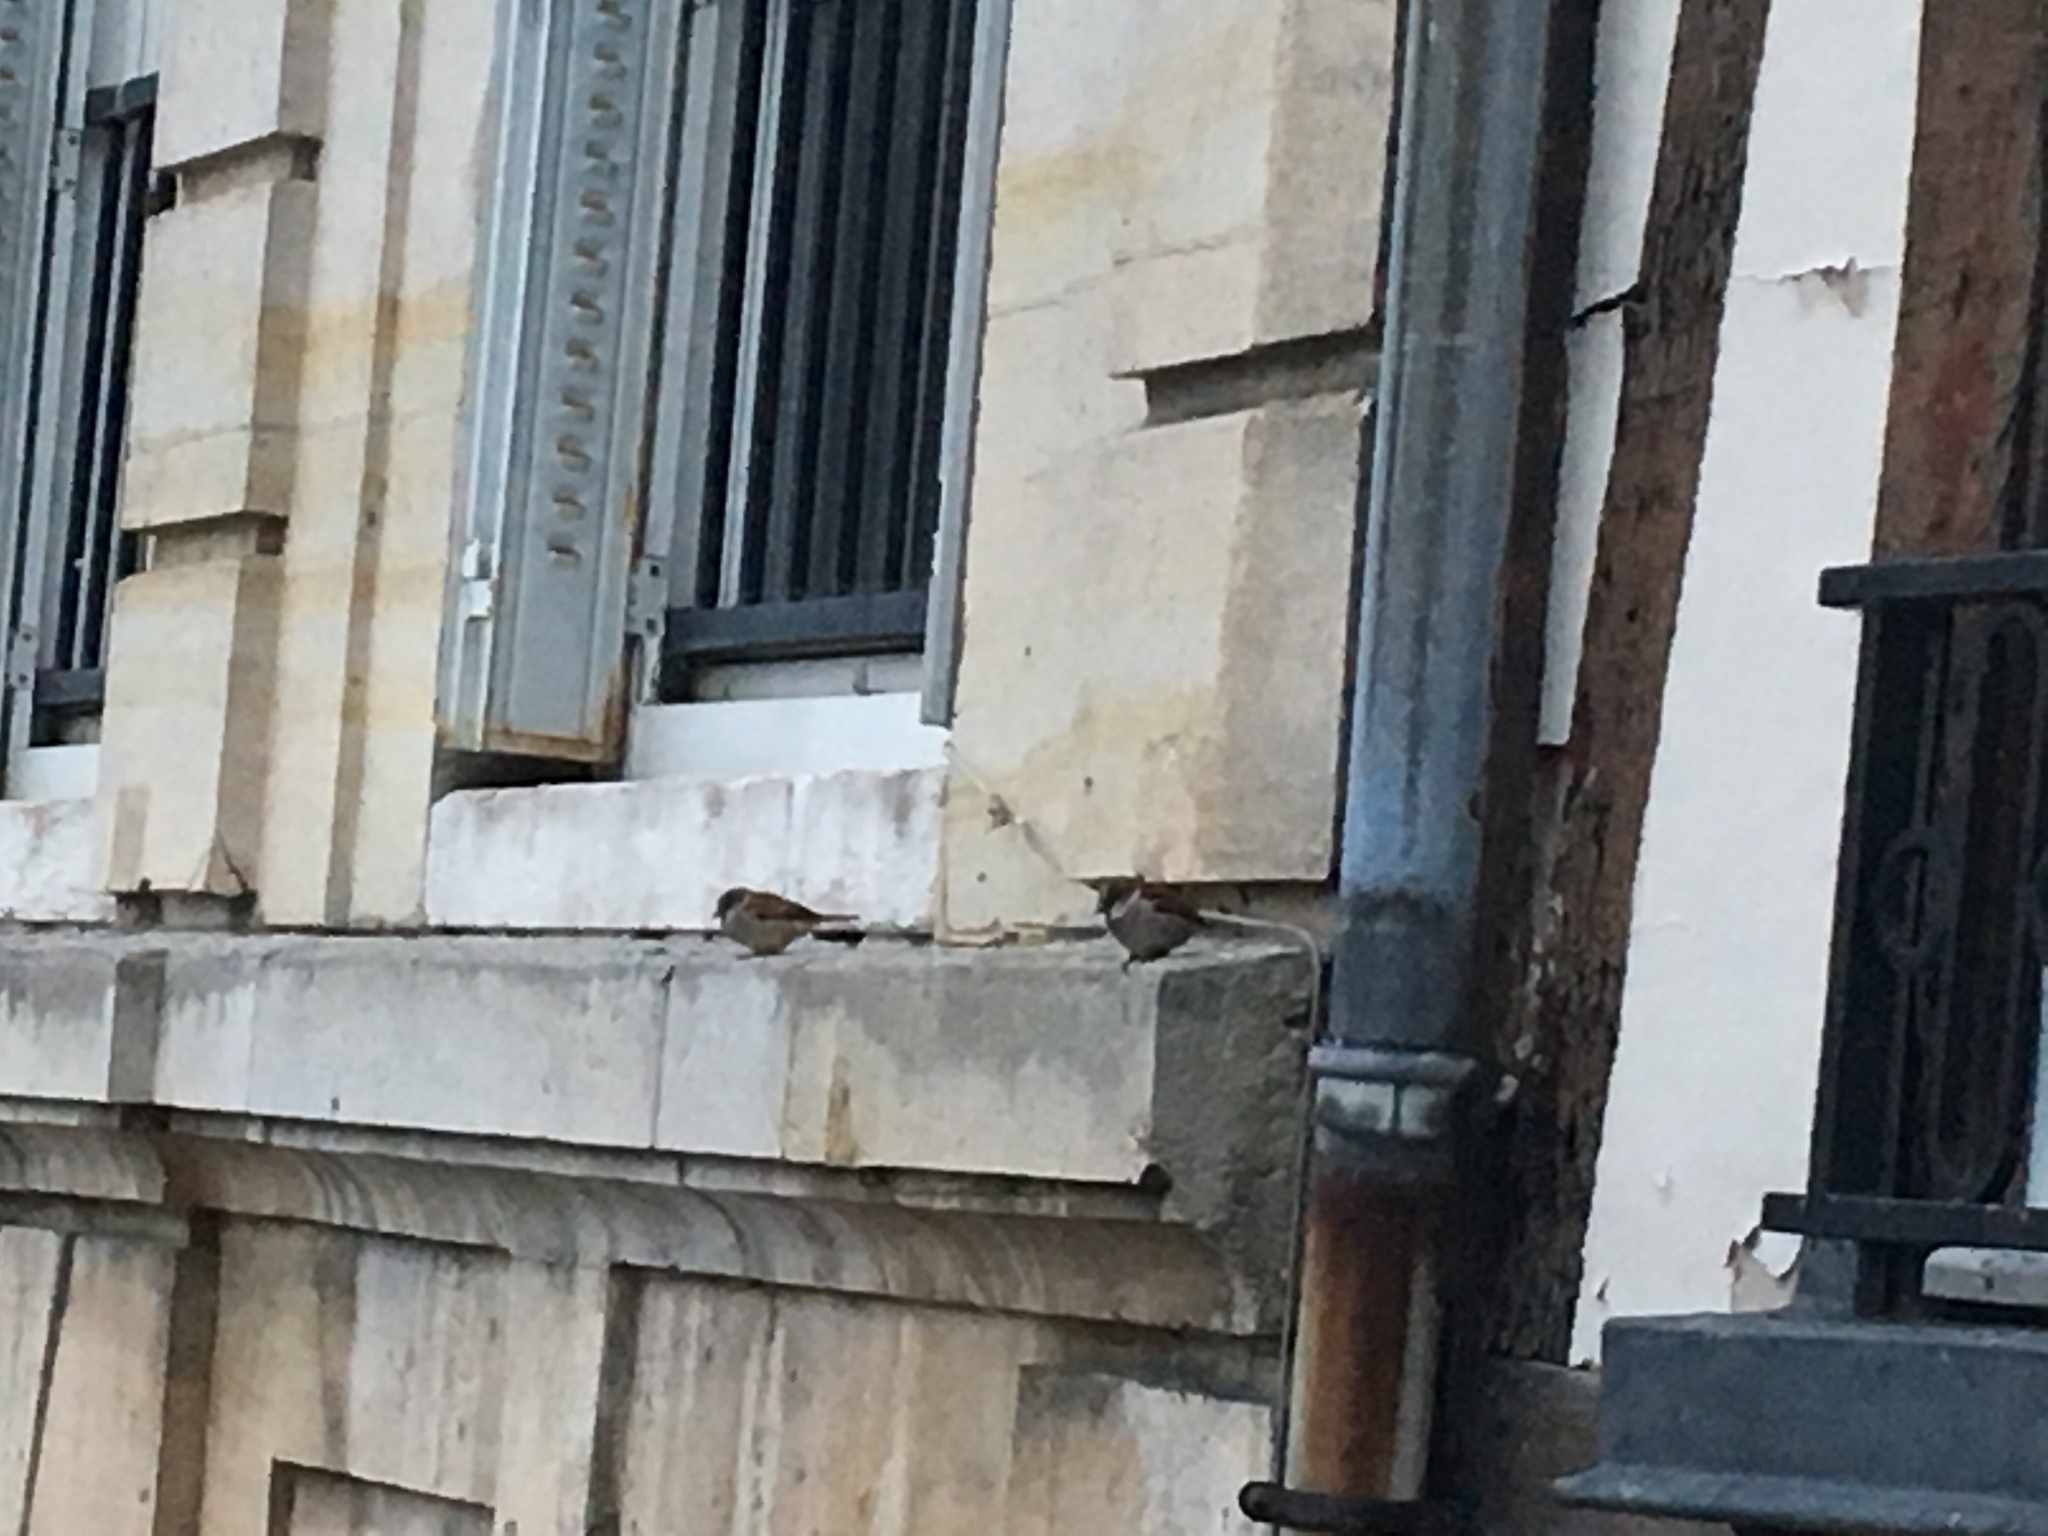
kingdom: Animalia
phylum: Chordata
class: Aves
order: Passeriformes
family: Passeridae
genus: Passer
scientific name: Passer domesticus
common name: House sparrow
